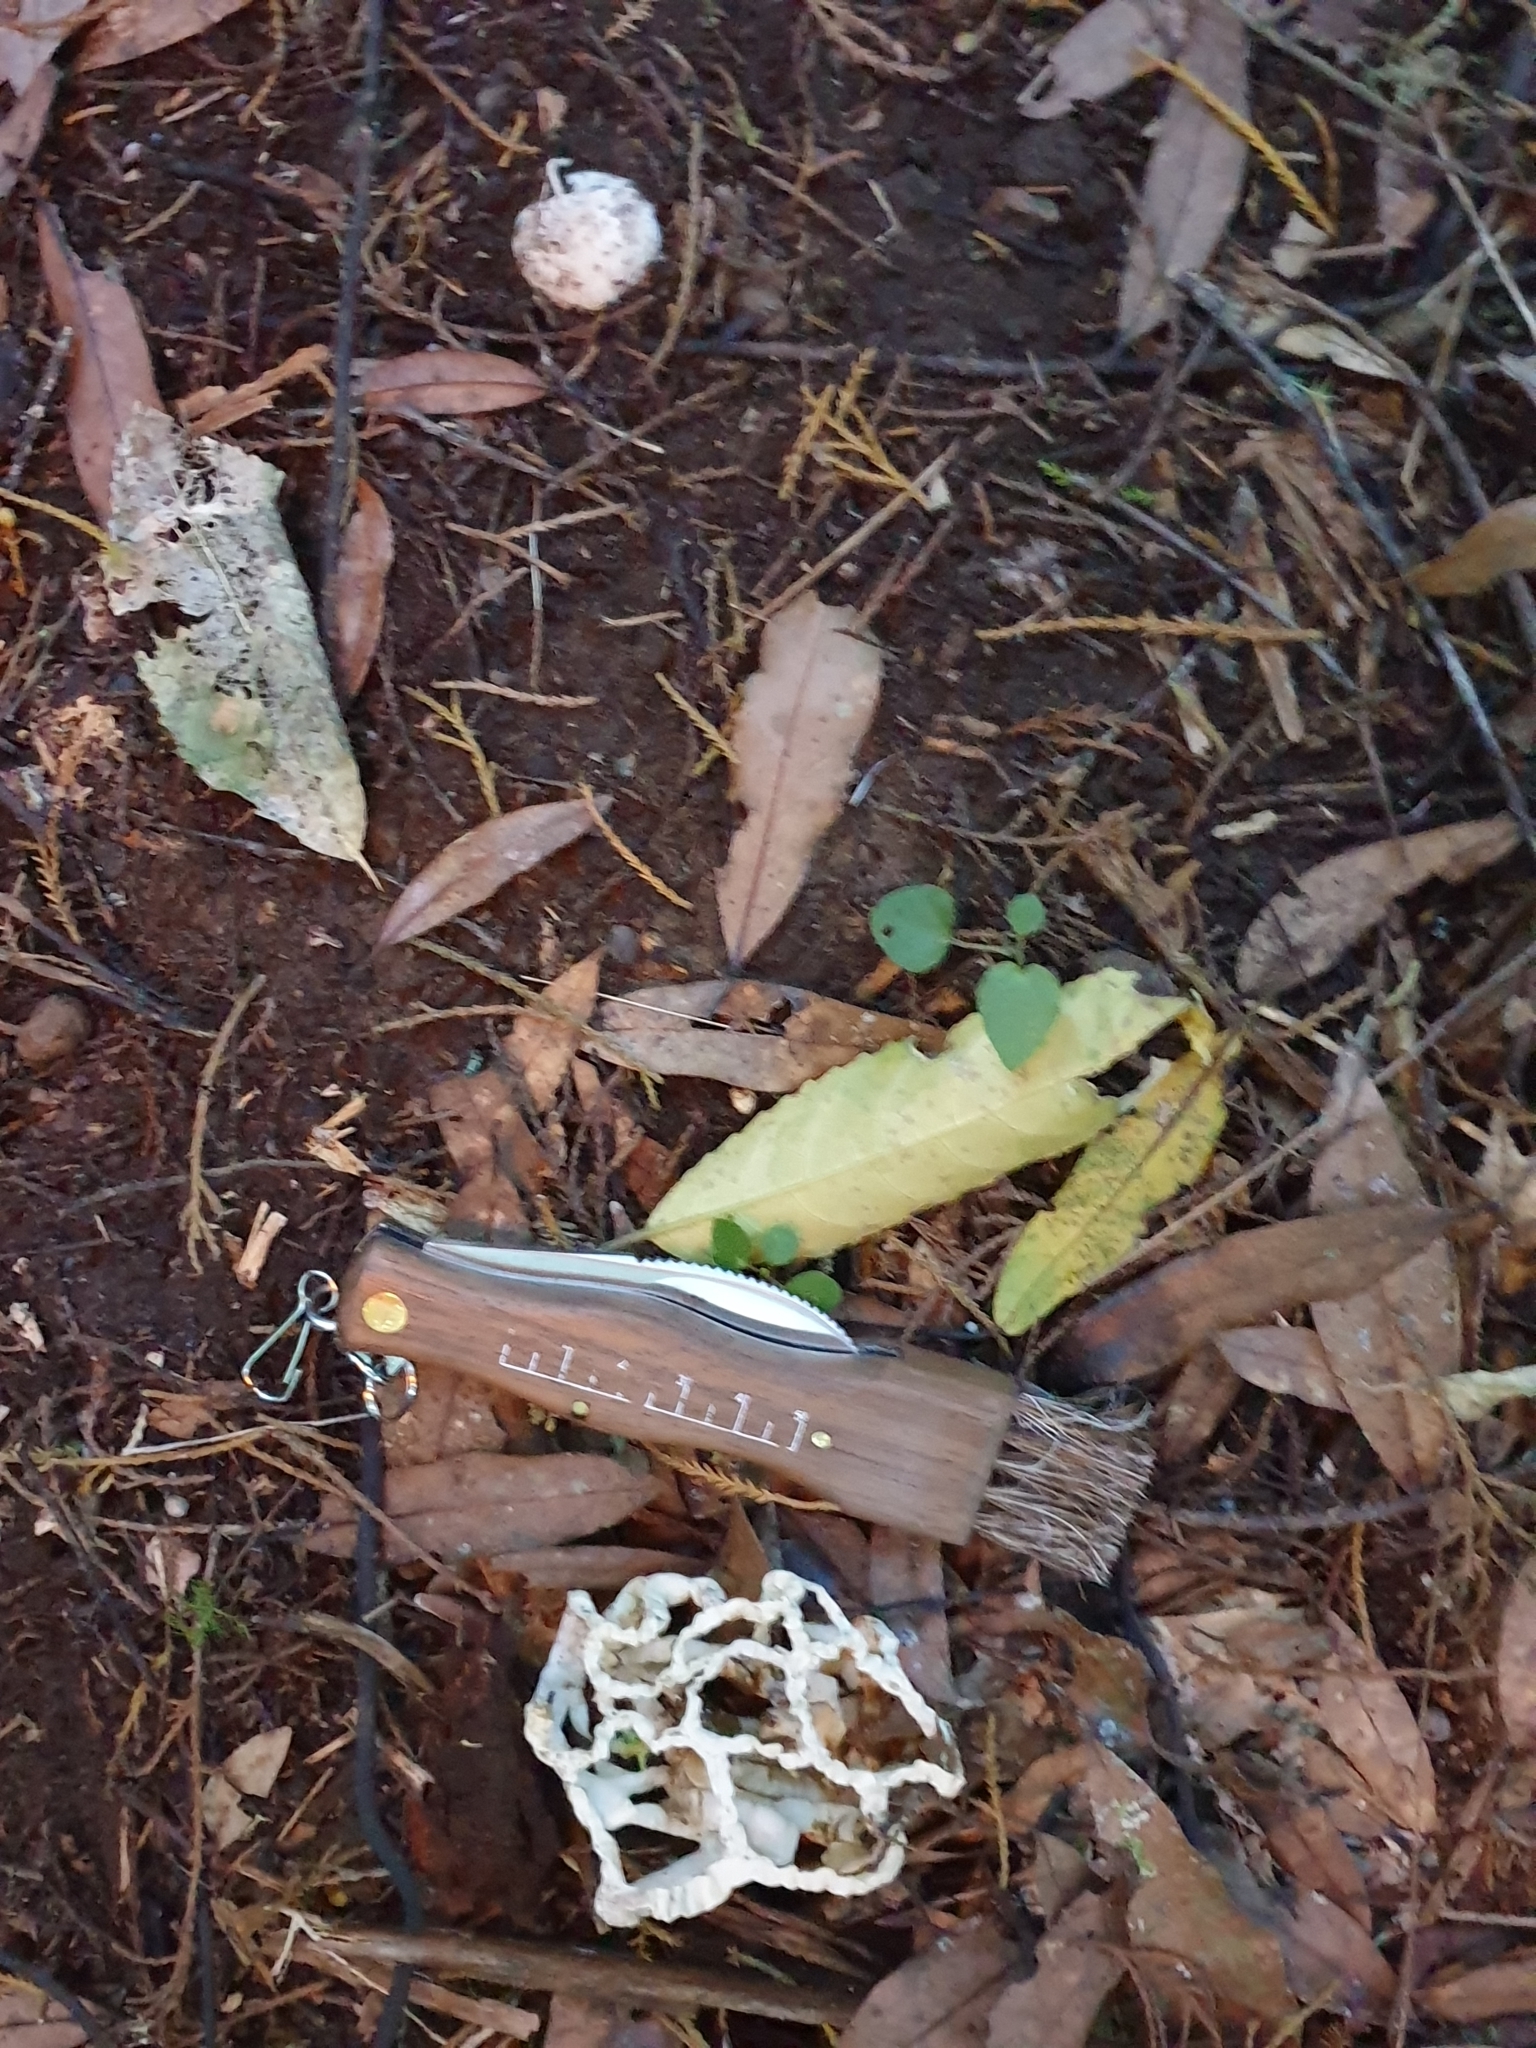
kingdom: Fungi
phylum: Basidiomycota
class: Agaricomycetes
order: Phallales
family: Phallaceae
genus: Ileodictyon
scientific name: Ileodictyon cibarium
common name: Basket fungus
